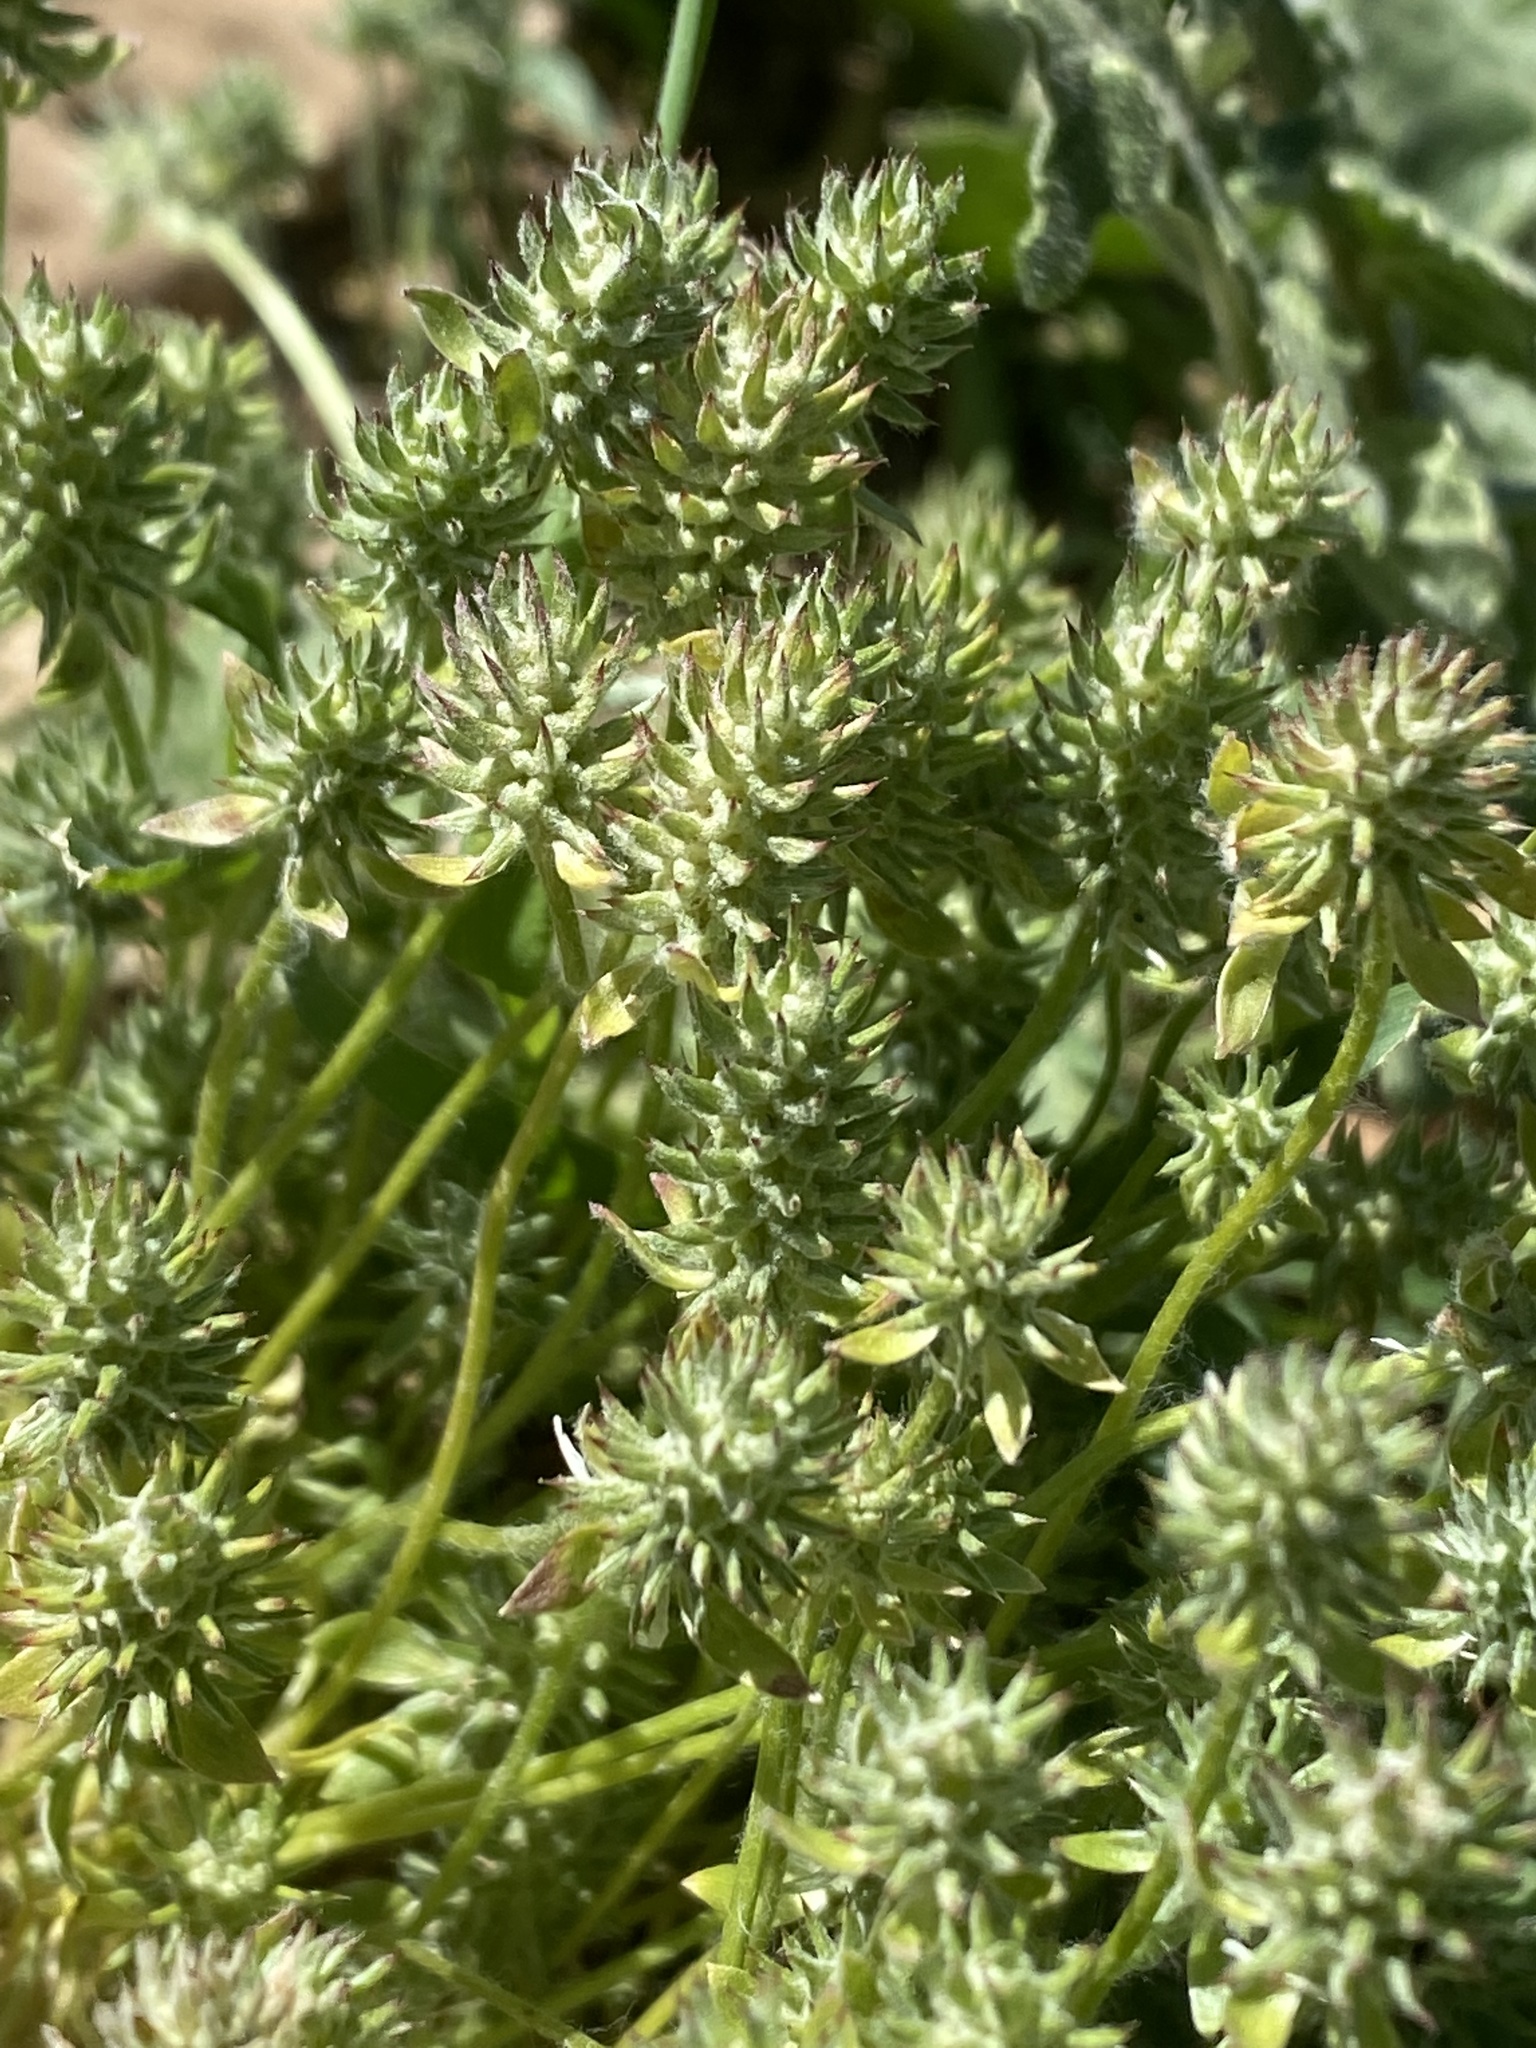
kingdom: Plantae
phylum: Tracheophyta
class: Magnoliopsida
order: Ranunculales
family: Ranunculaceae
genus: Ceratocephala
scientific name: Ceratocephala orthoceras
